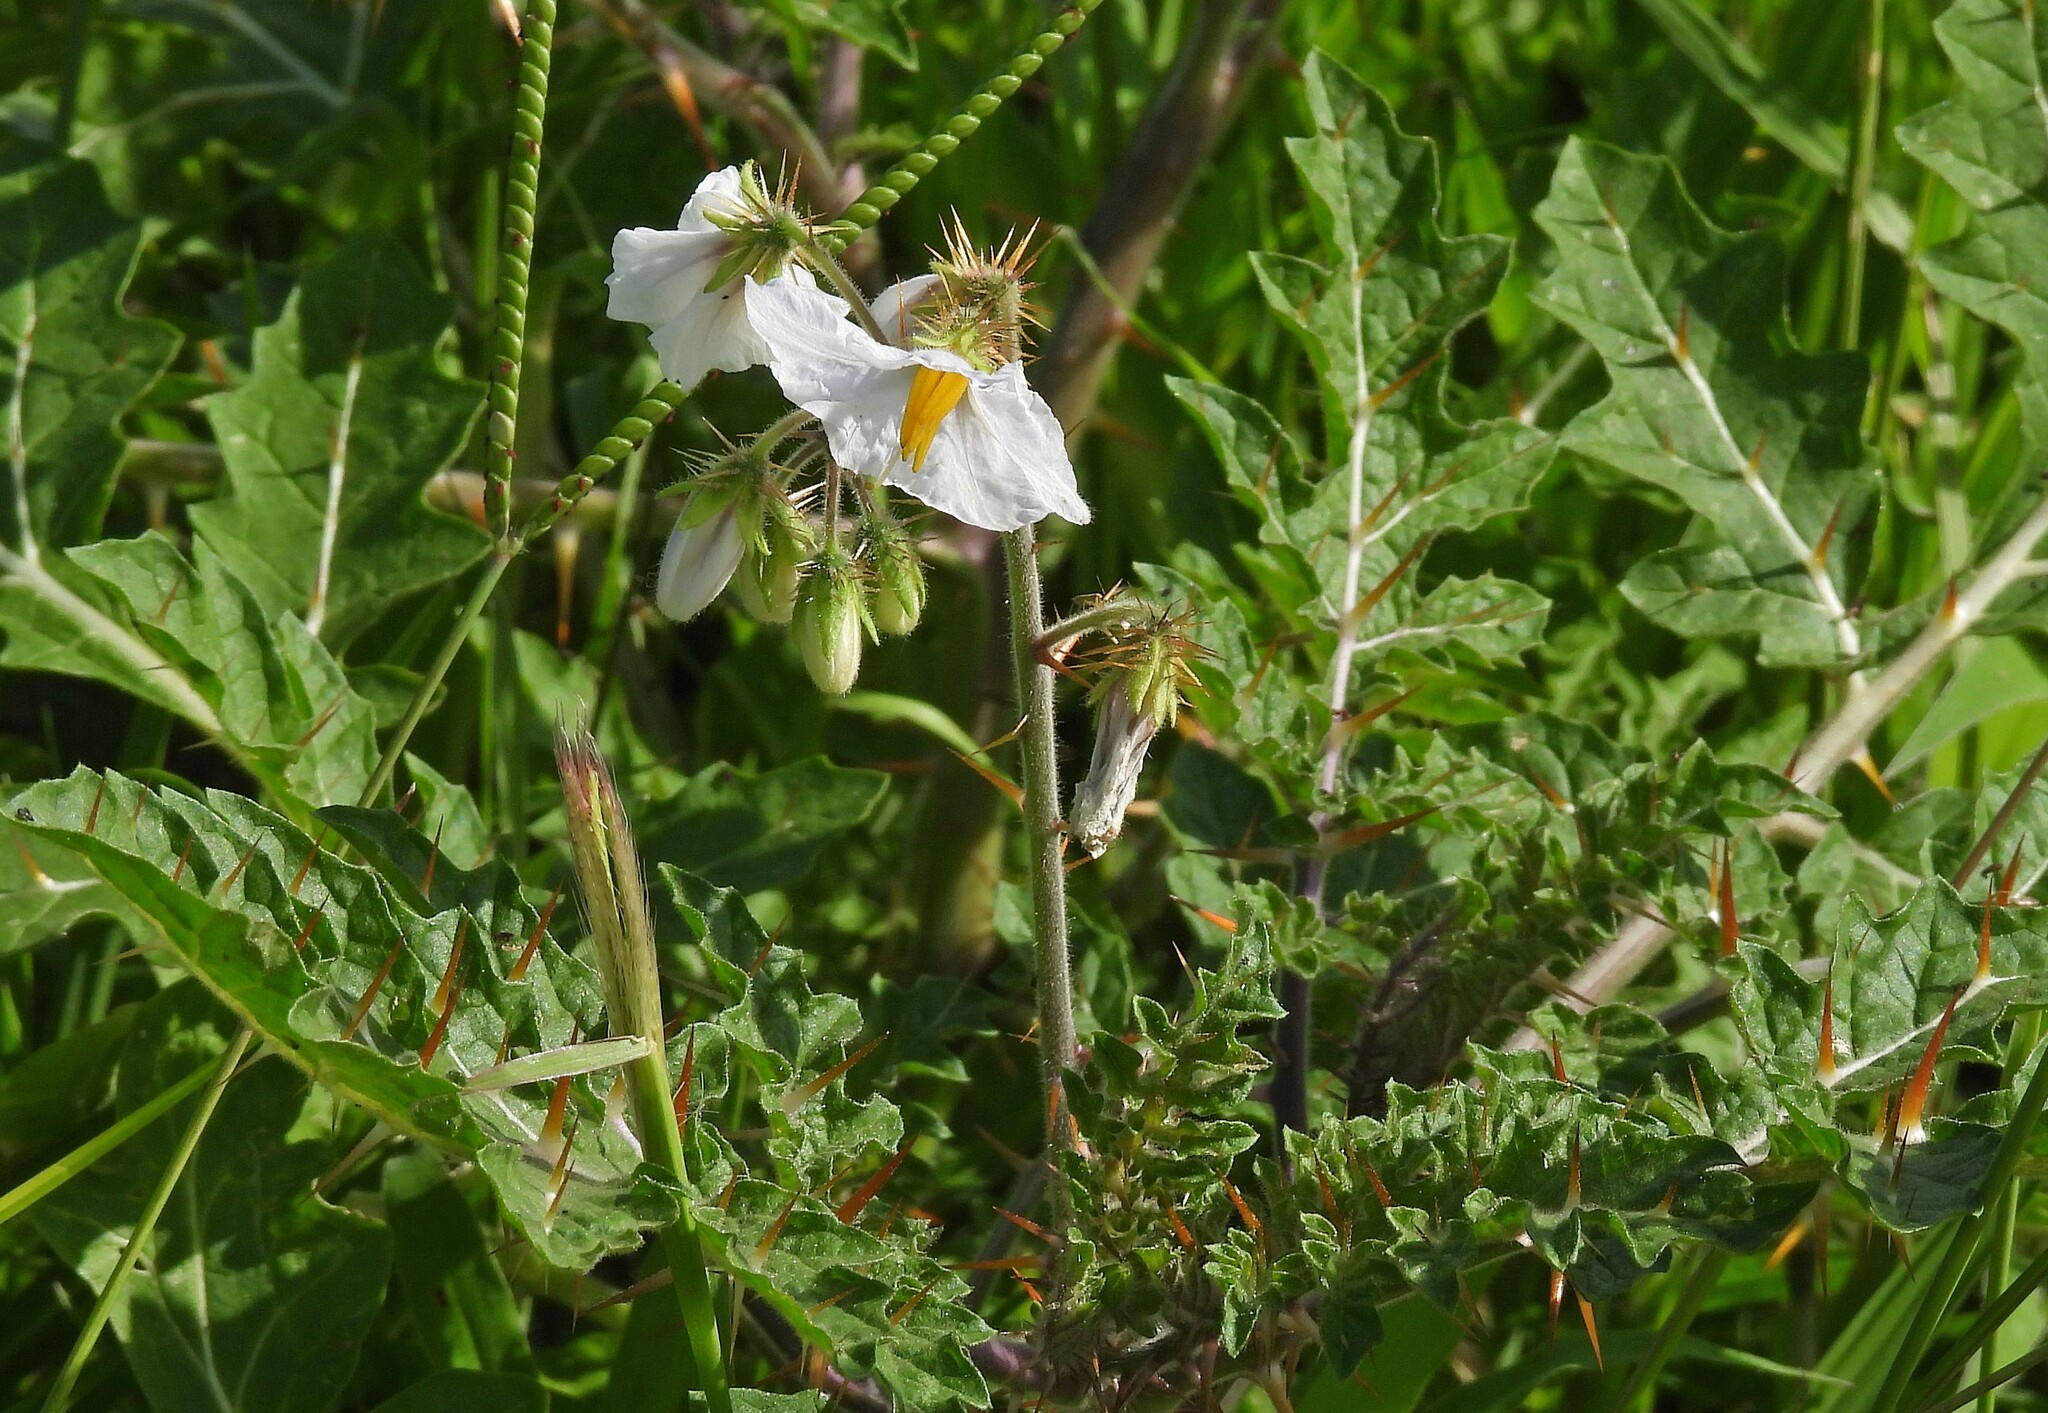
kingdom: Plantae
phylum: Tracheophyta
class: Magnoliopsida
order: Solanales
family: Solanaceae
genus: Solanum
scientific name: Solanum sisymbriifolium
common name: Red buffalo-bur
